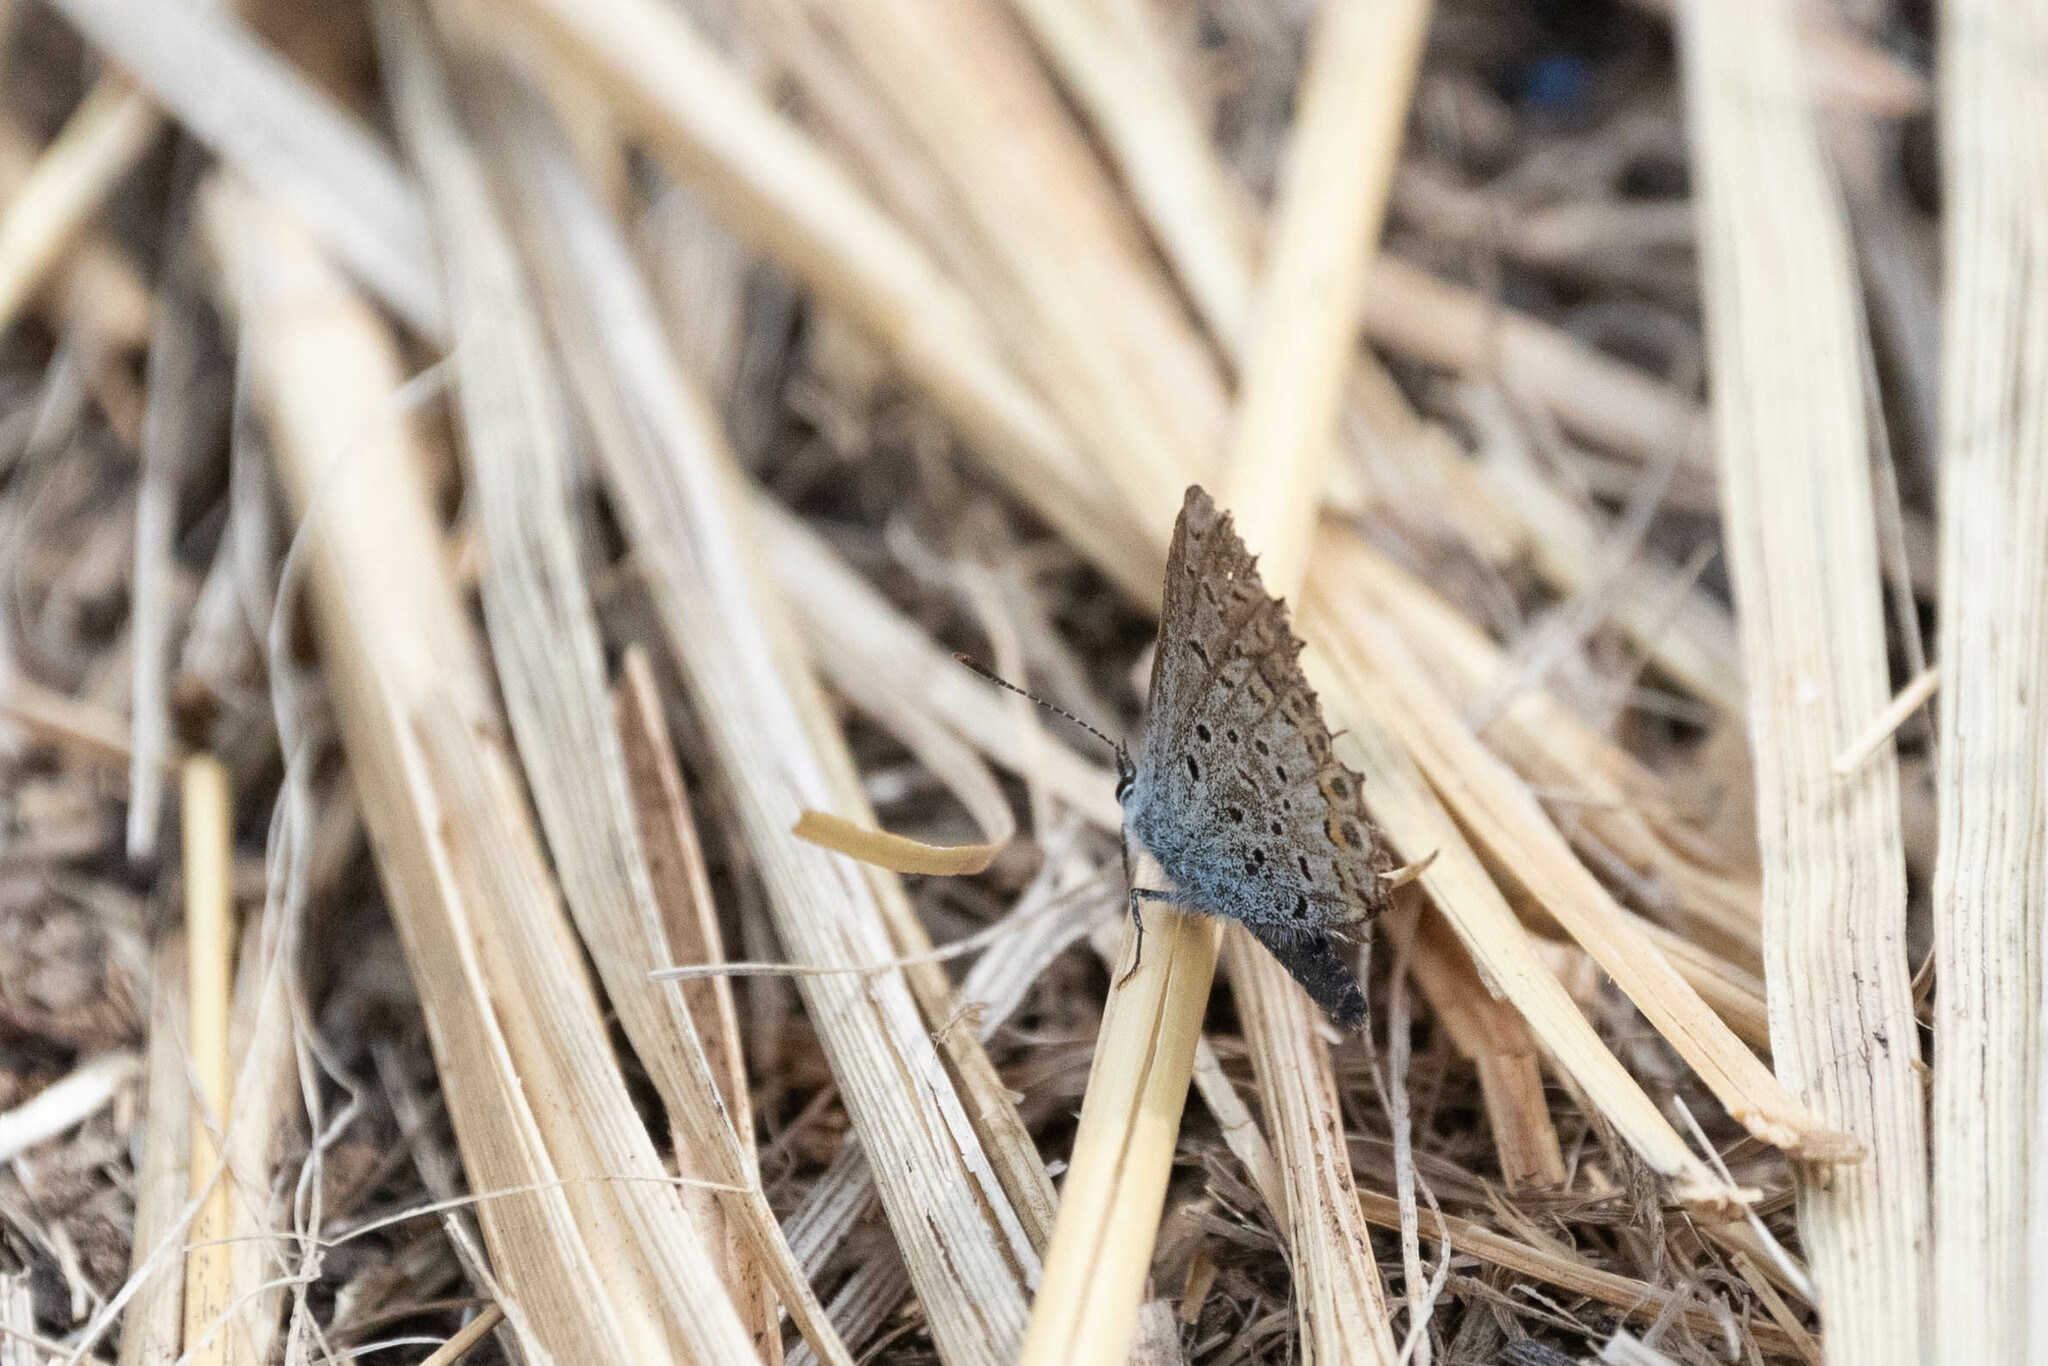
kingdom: Animalia
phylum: Arthropoda
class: Insecta
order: Lepidoptera
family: Lycaenidae
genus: Lycaeides
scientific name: Lycaeides idas
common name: Northern blue
